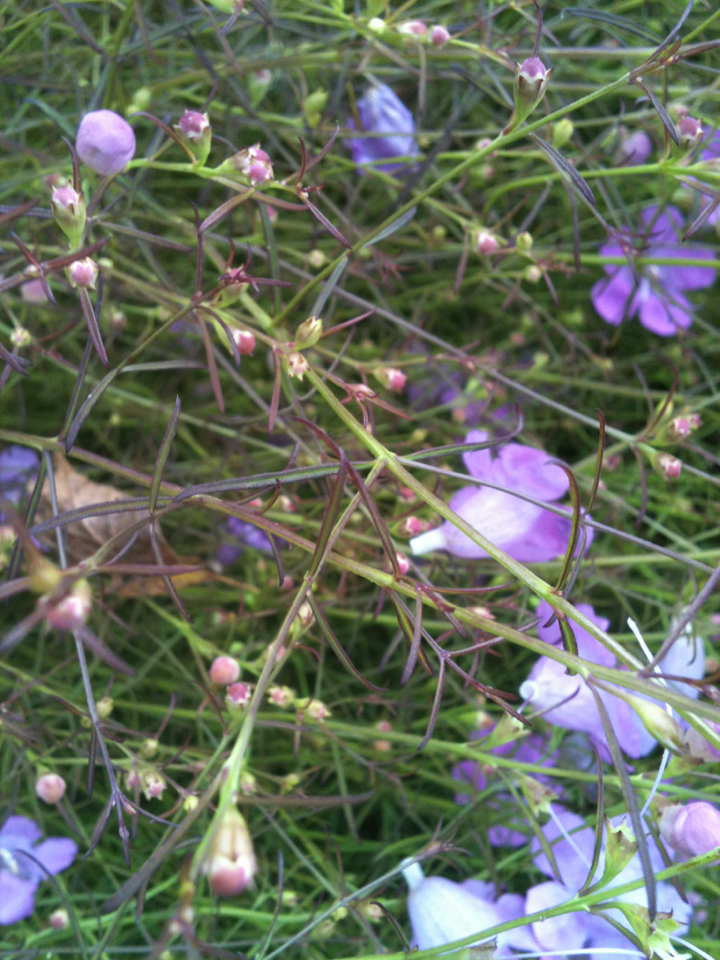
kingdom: Plantae
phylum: Tracheophyta
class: Magnoliopsida
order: Lamiales
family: Orobanchaceae
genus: Agalinis
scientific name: Agalinis tenuifolia
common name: Slender agalinis
